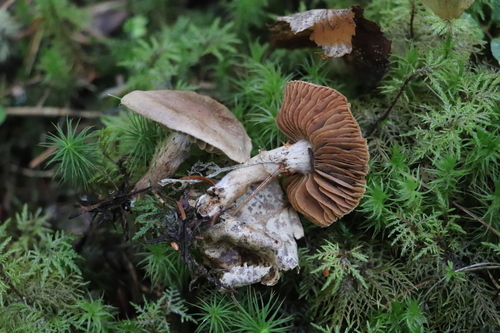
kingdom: Fungi
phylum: Basidiomycota
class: Agaricomycetes
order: Agaricales
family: Cortinariaceae
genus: Cortinarius
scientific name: Cortinarius betuletorum
